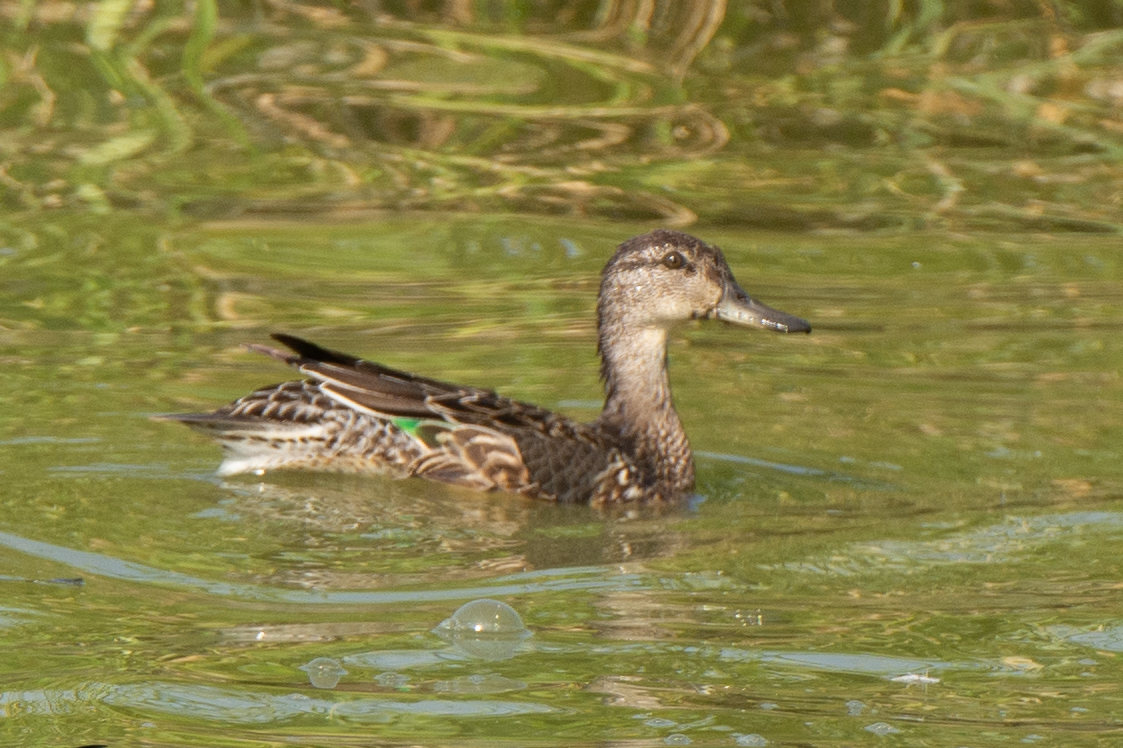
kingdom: Animalia
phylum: Chordata
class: Aves
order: Anseriformes
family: Anatidae
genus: Anas
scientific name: Anas crecca
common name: Eurasian teal
